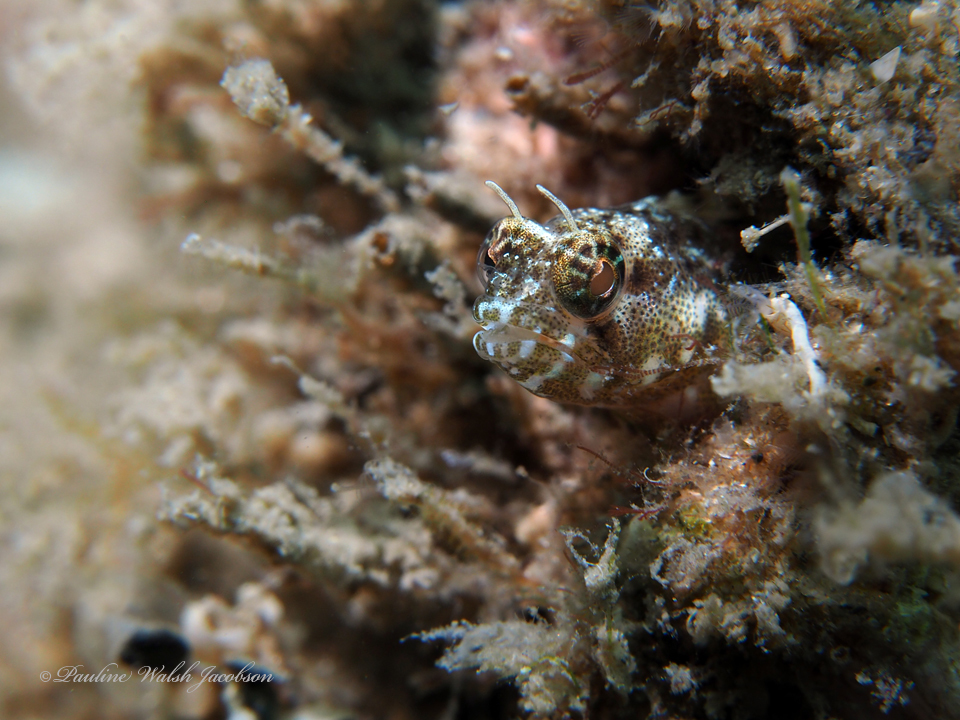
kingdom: Animalia
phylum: Chordata
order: Perciformes
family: Chaenopsidae
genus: Emblemaria
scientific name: Emblemaria pandionis
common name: Sailfin blenny
